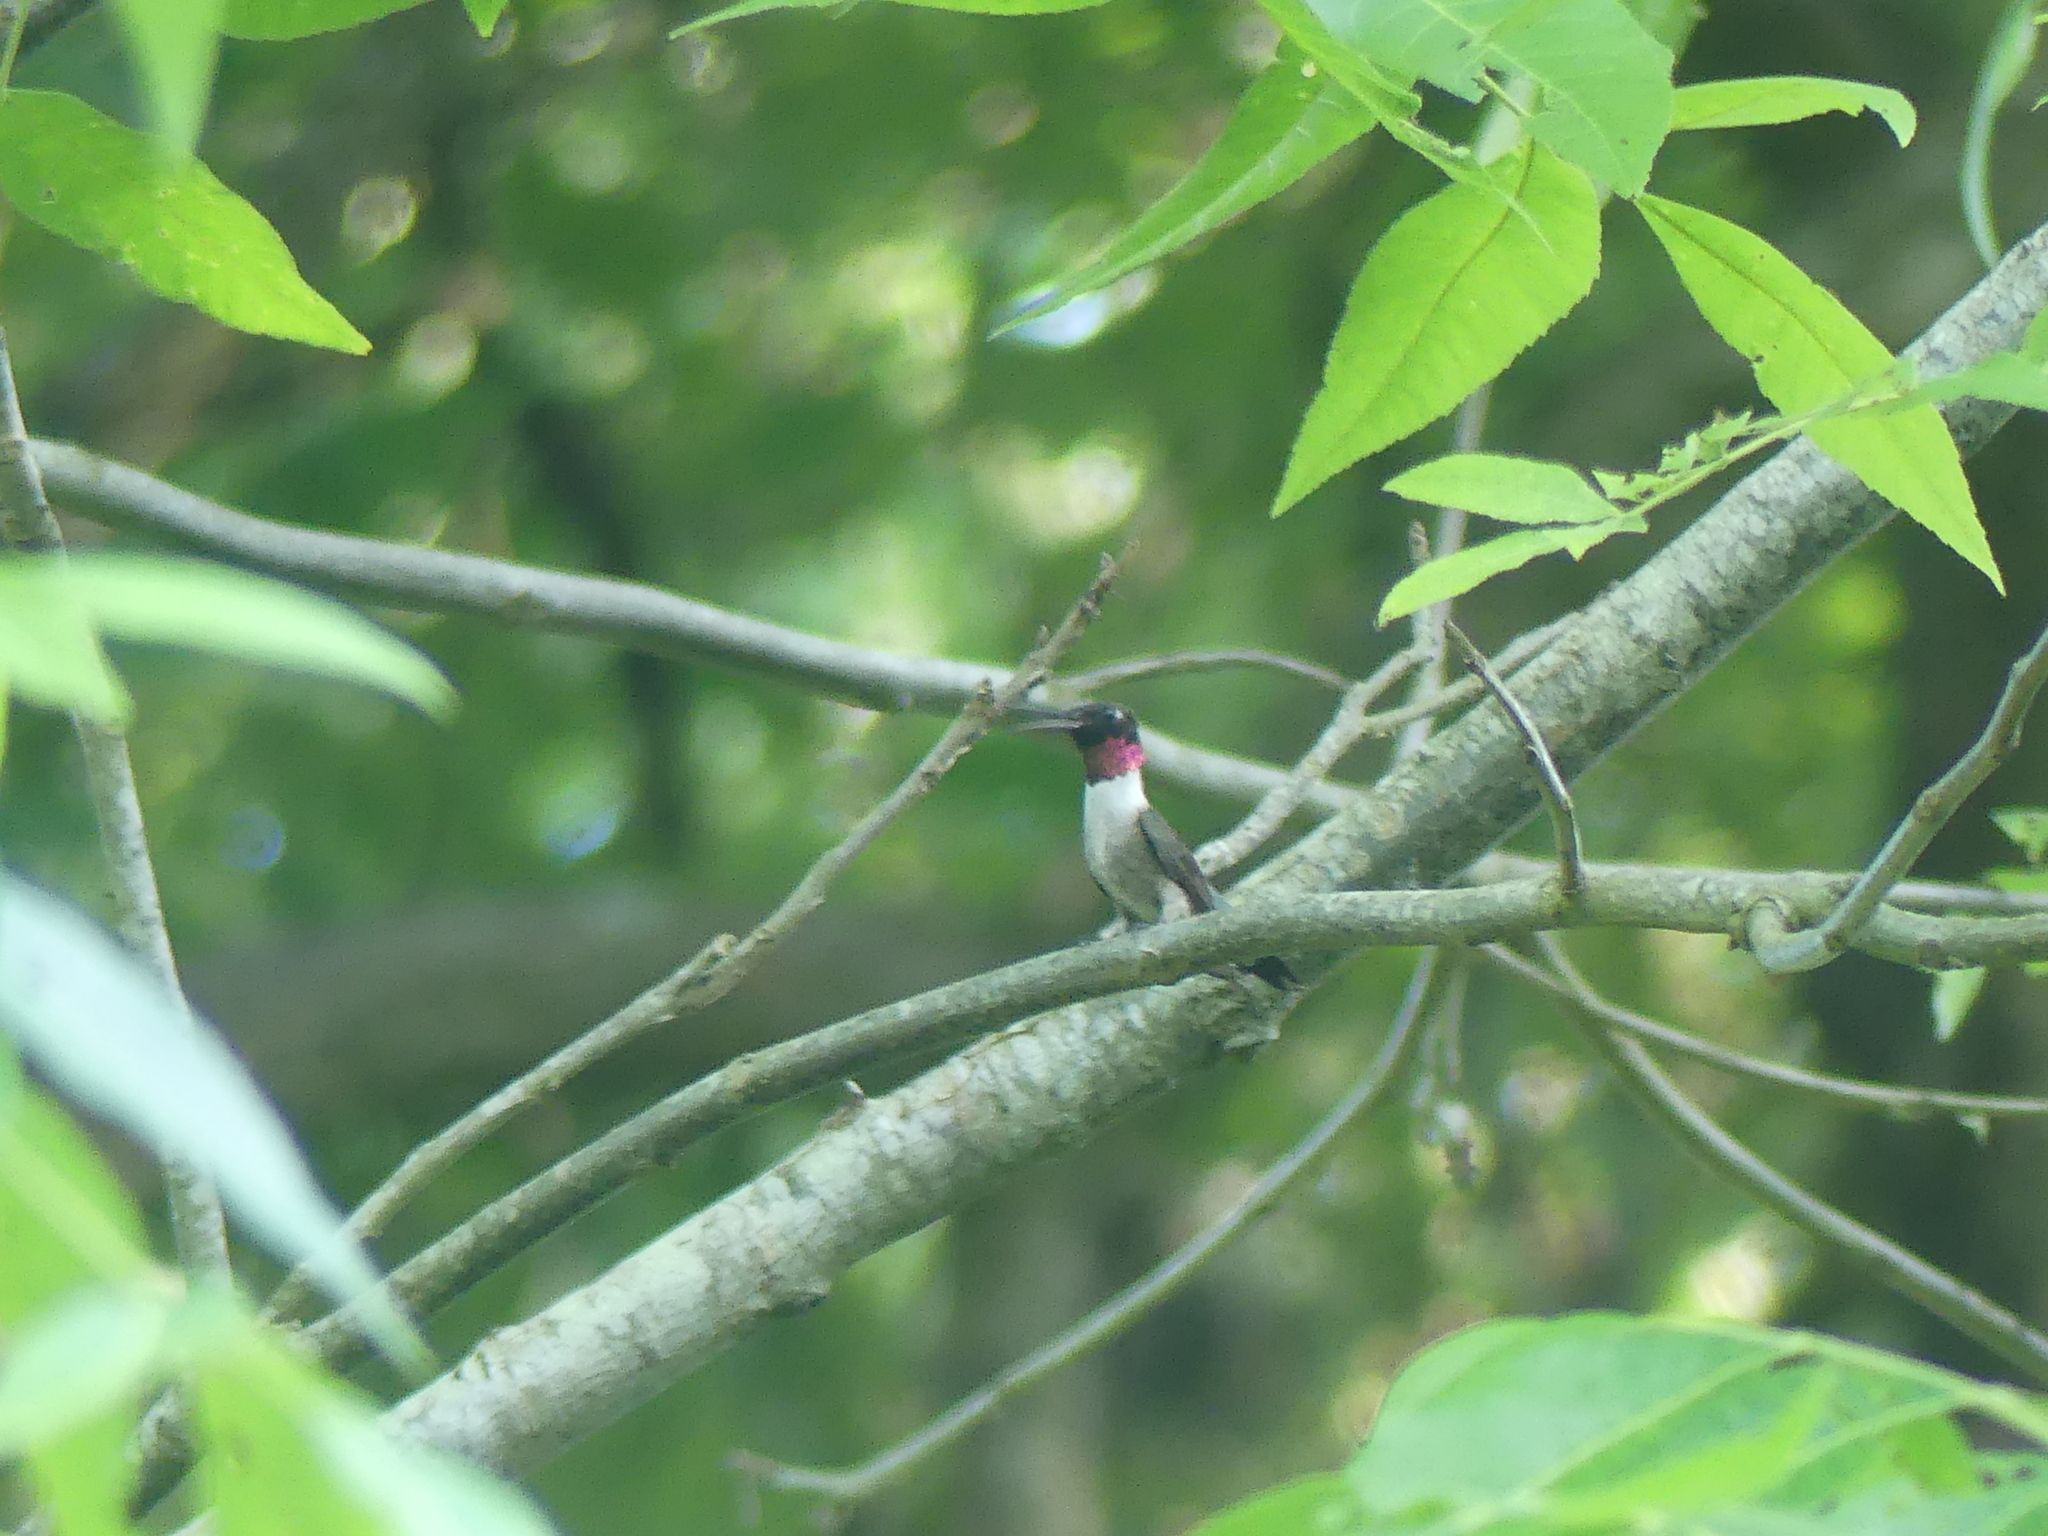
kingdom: Animalia
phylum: Chordata
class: Aves
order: Apodiformes
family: Trochilidae
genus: Archilochus
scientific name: Archilochus colubris
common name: Ruby-throated hummingbird
